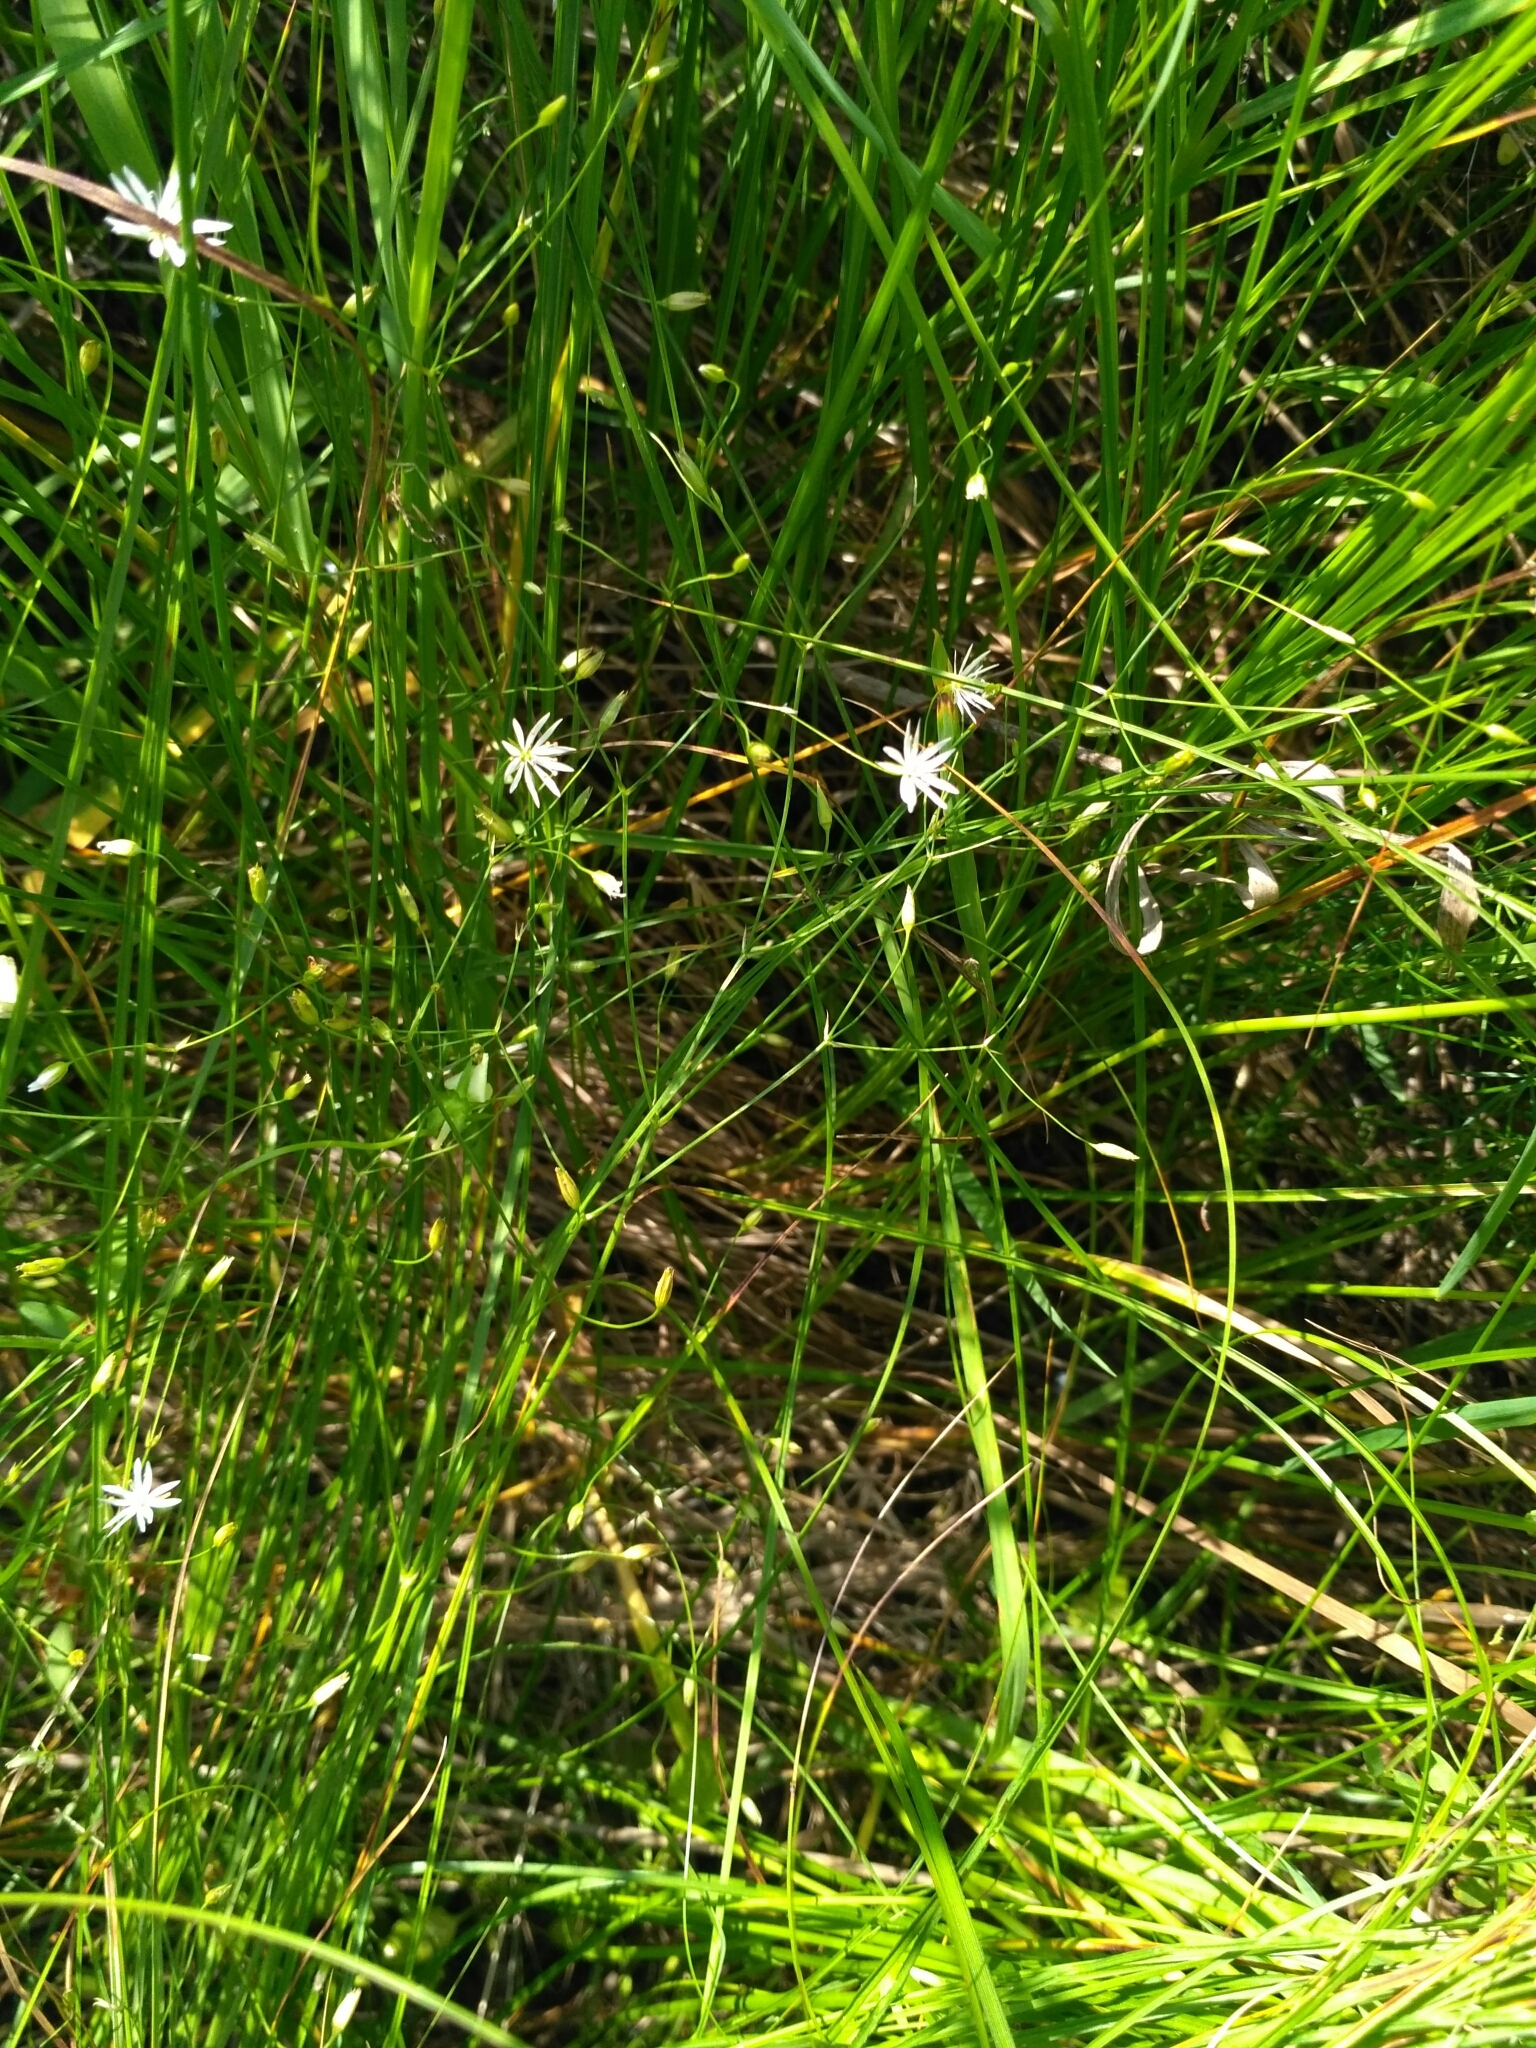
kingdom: Plantae
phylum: Tracheophyta
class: Magnoliopsida
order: Caryophyllales
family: Caryophyllaceae
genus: Stellaria
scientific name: Stellaria graminea
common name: Grass-like starwort
